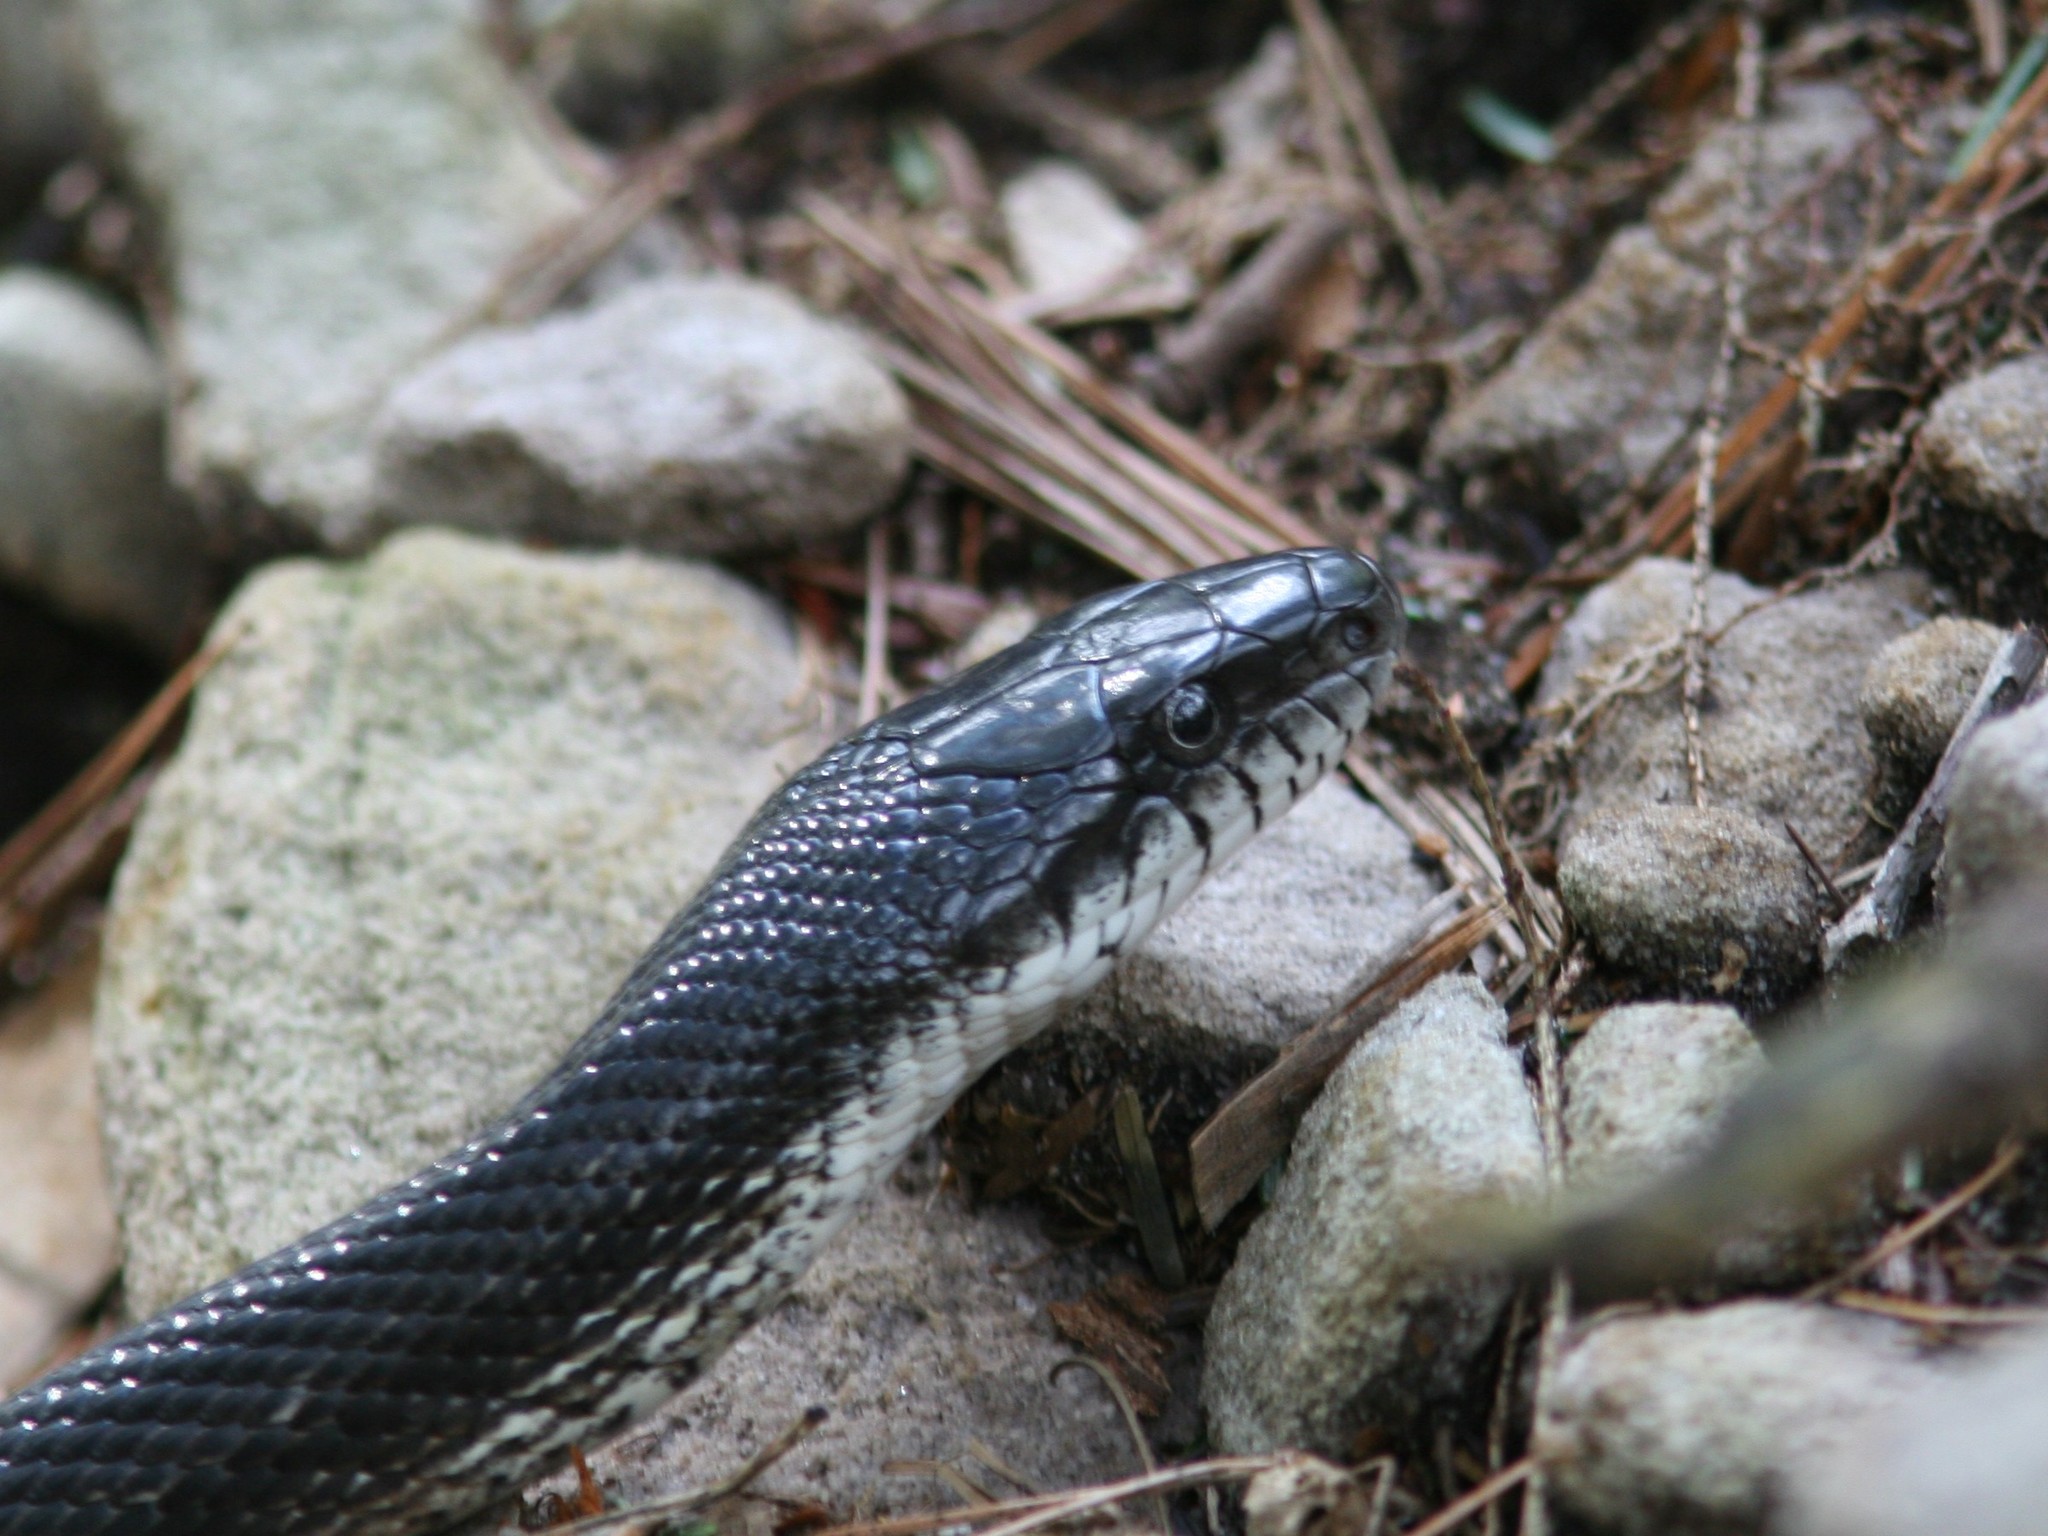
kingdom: Animalia
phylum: Chordata
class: Squamata
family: Colubridae
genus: Pantherophis
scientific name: Pantherophis alleghaniensis
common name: Eastern rat snake
